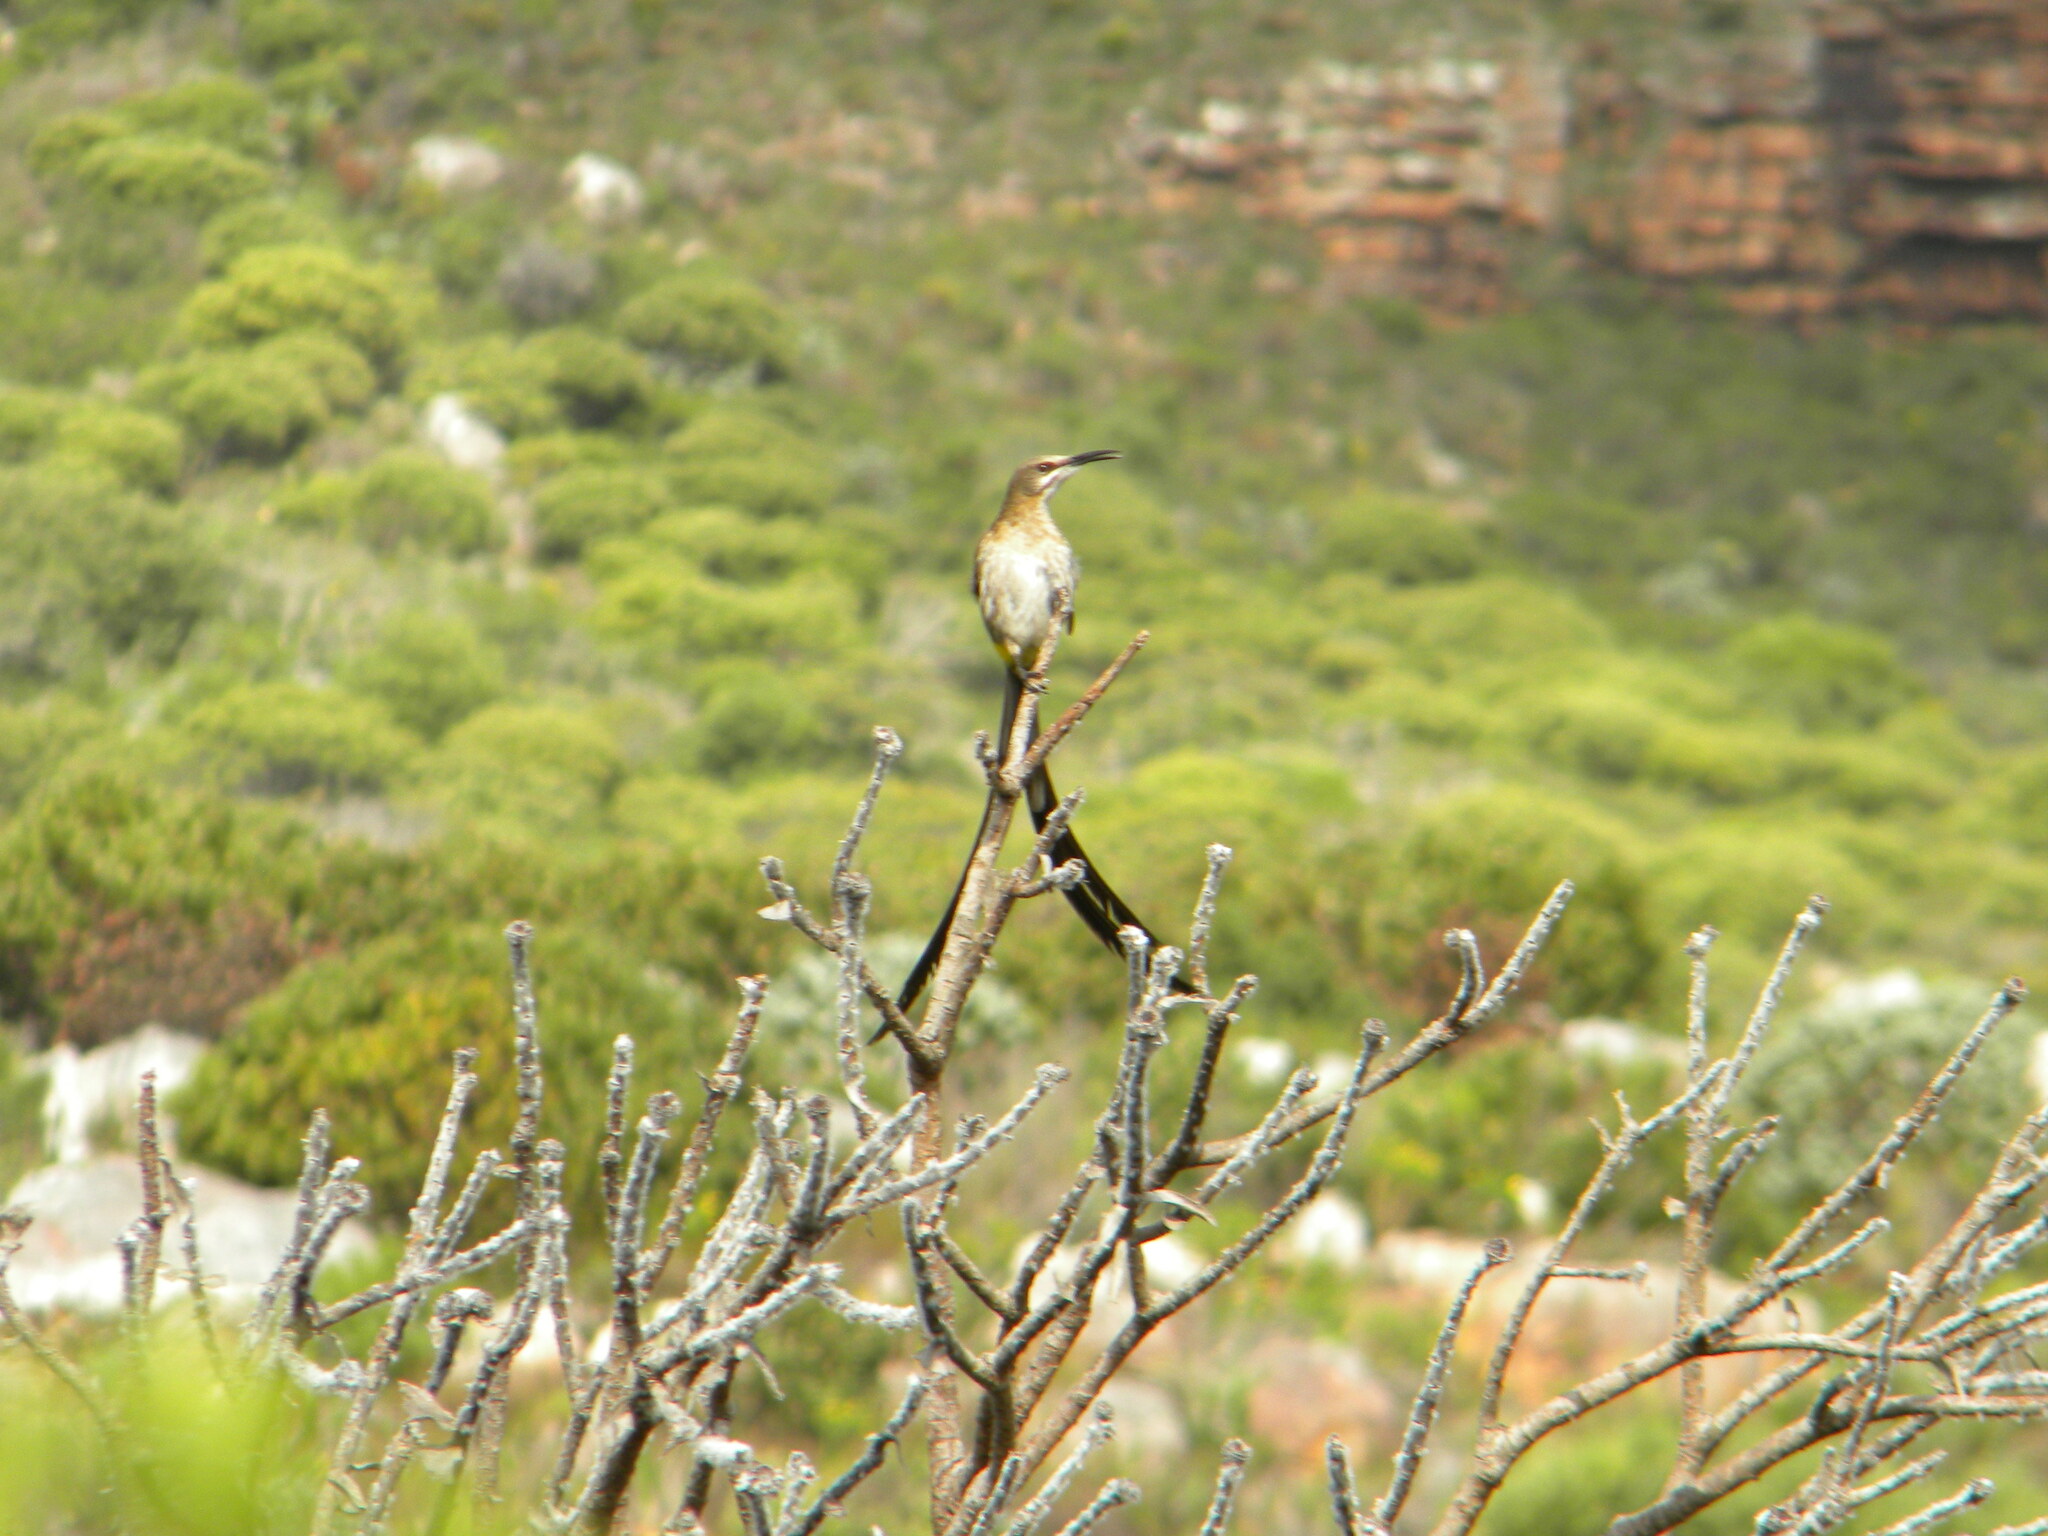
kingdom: Animalia
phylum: Chordata
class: Aves
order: Passeriformes
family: Promeropidae
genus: Promerops
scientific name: Promerops cafer
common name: Cape sugarbird
